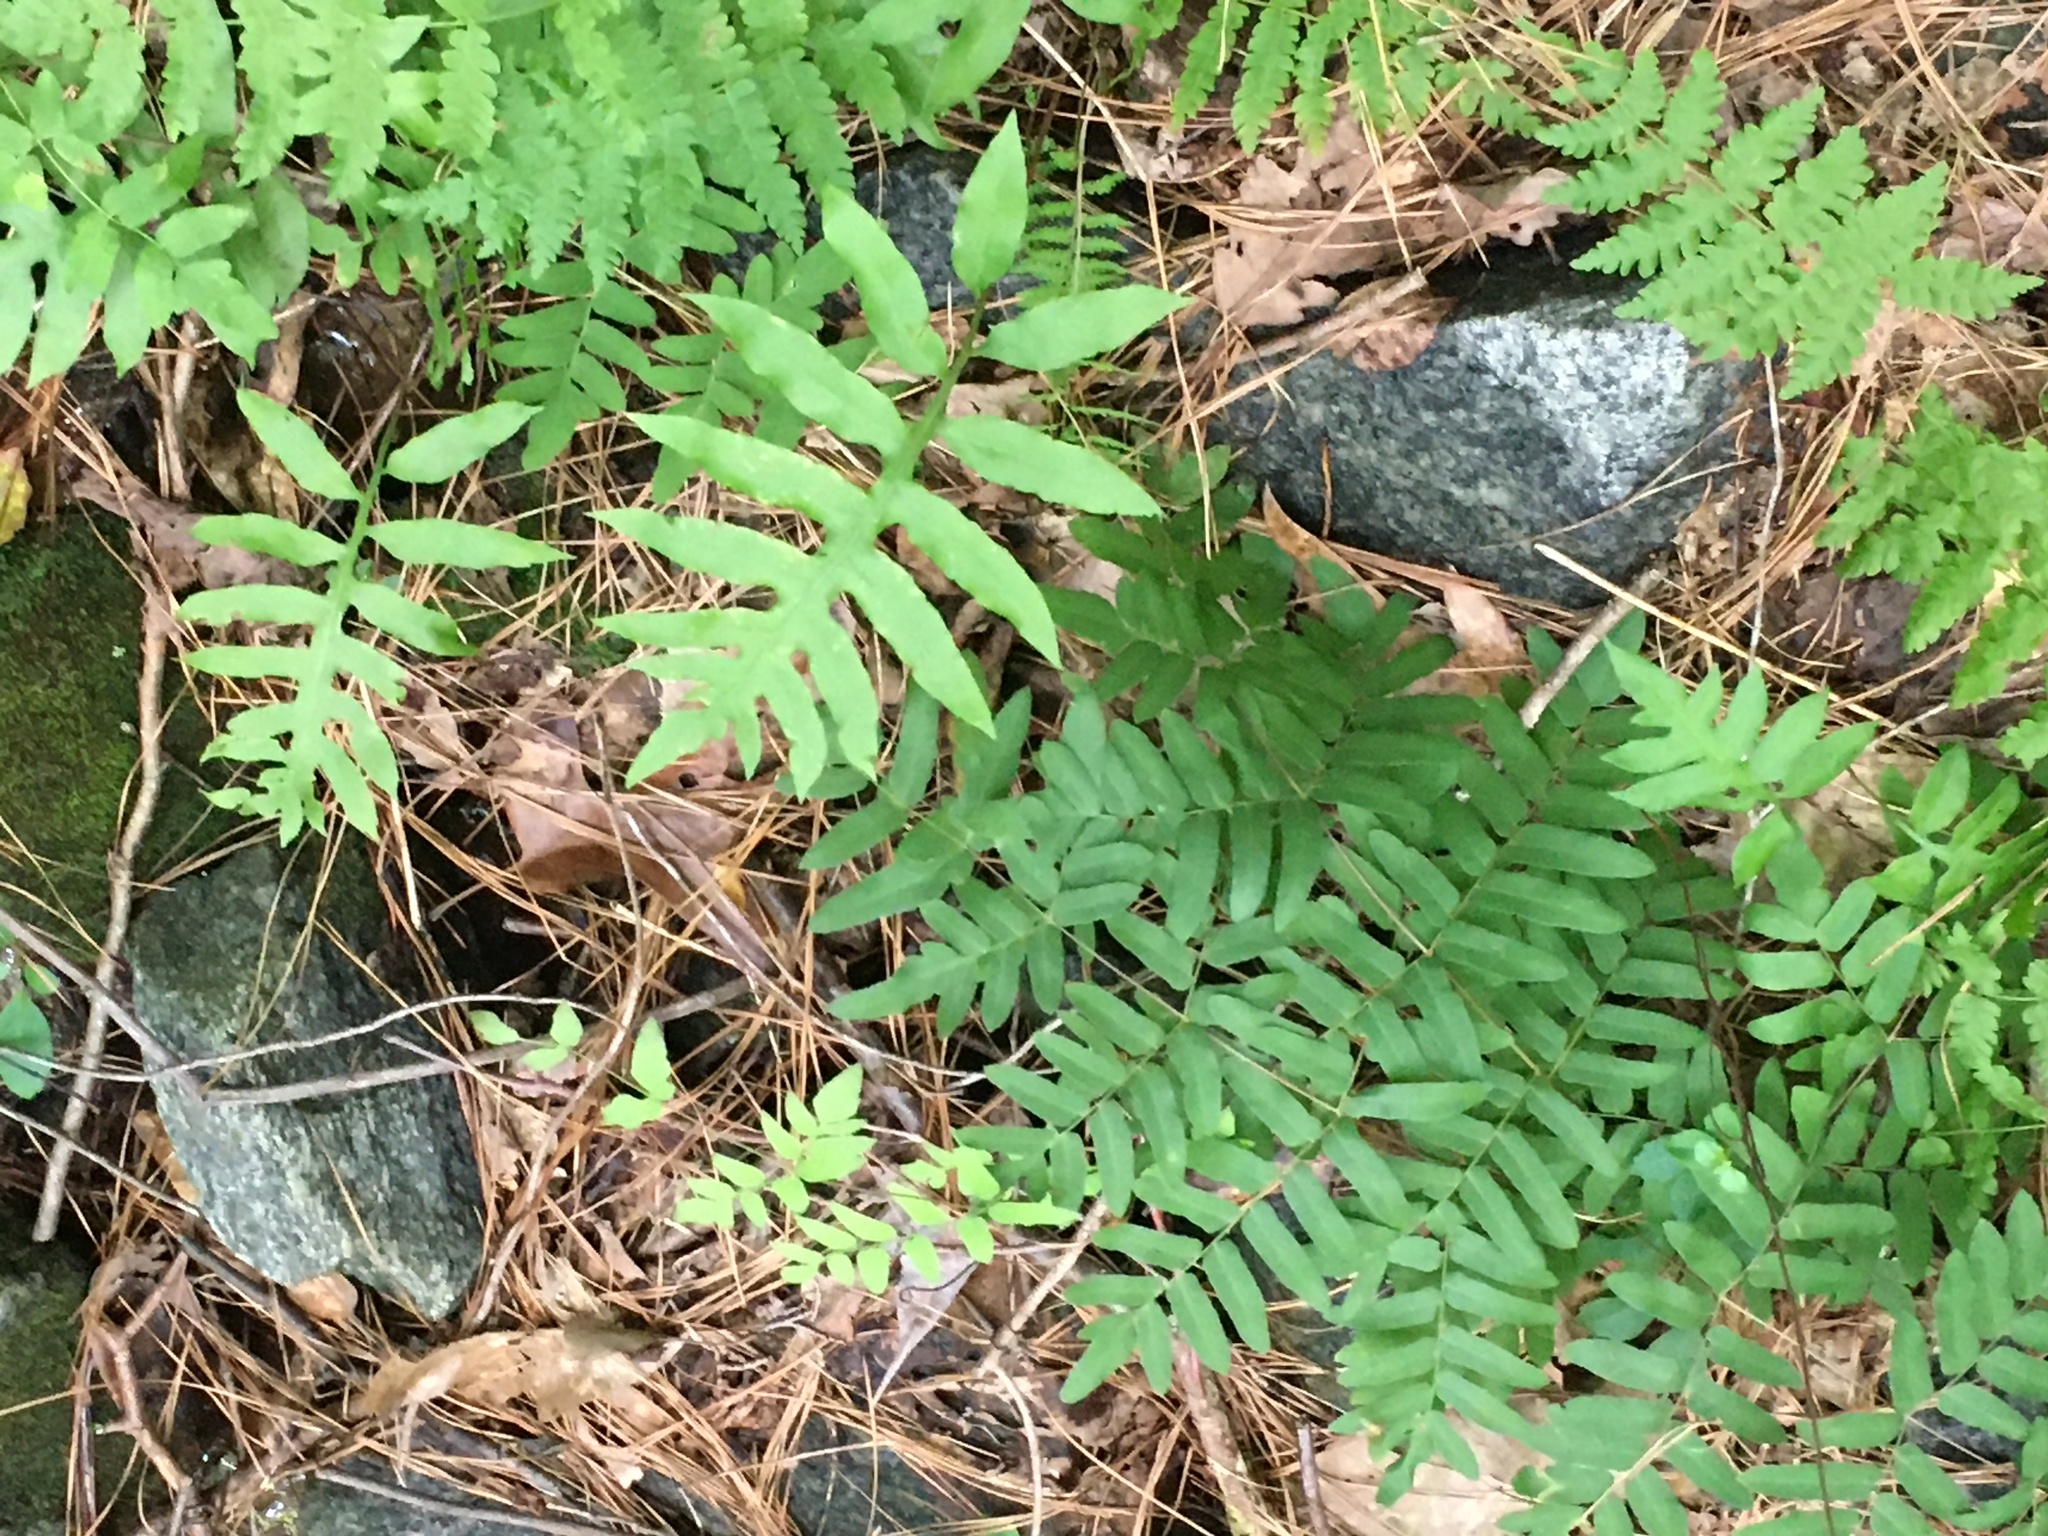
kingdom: Plantae
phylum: Tracheophyta
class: Polypodiopsida
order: Osmundales
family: Osmundaceae
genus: Osmunda
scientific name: Osmunda spectabilis
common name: American royal fern
